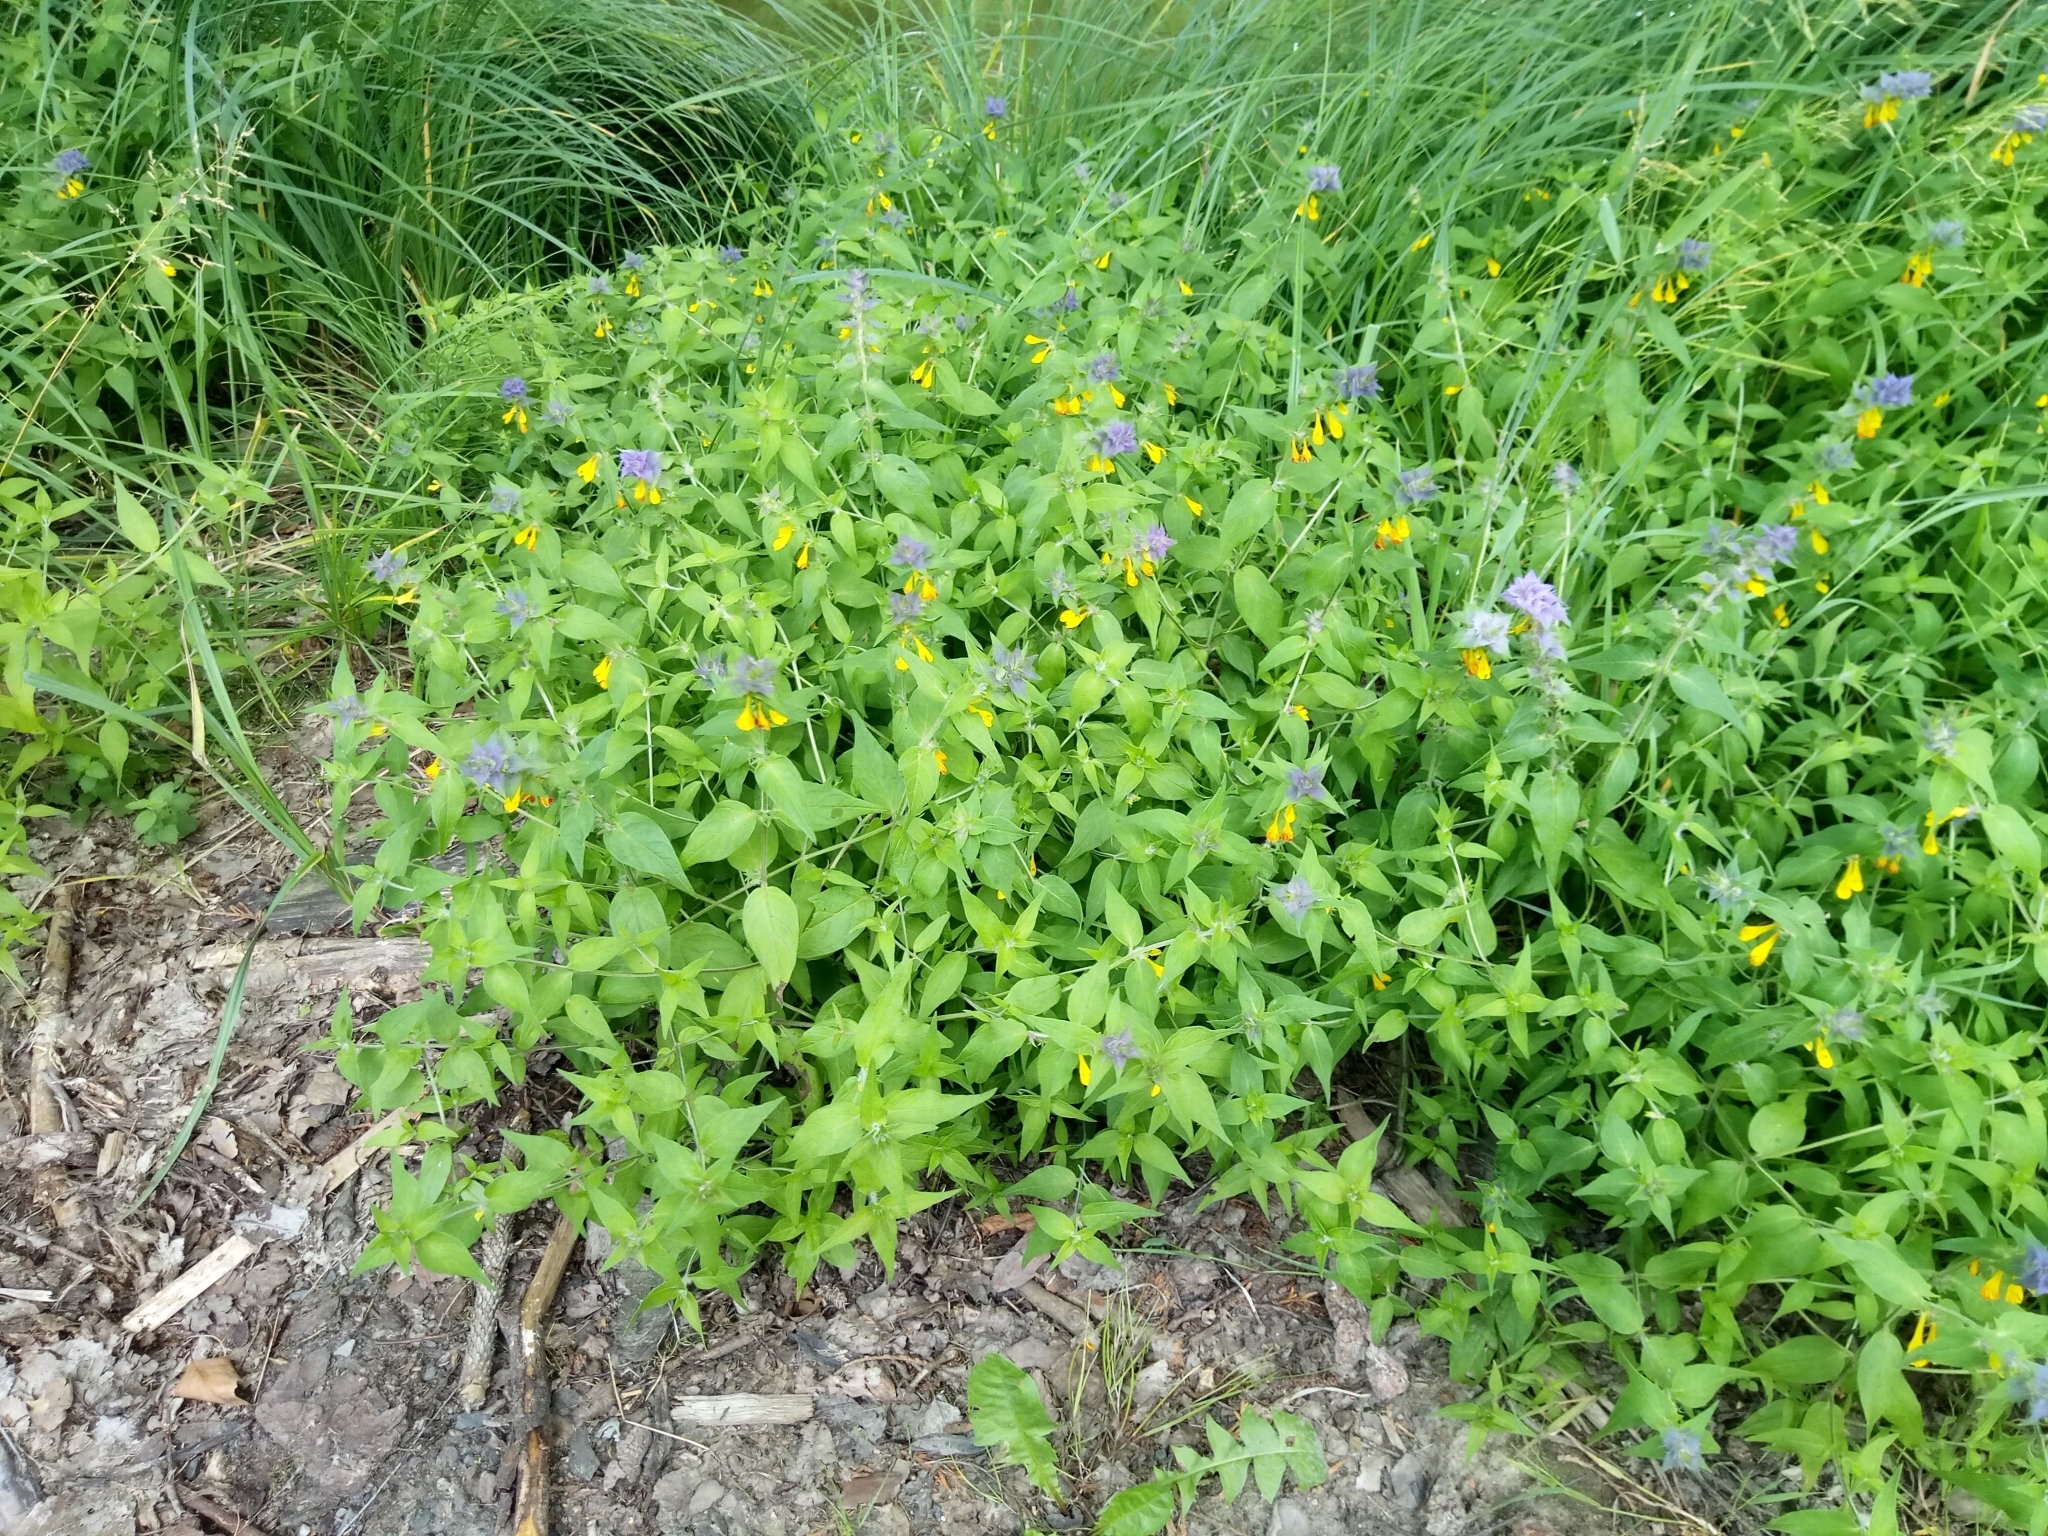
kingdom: Plantae
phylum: Tracheophyta
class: Magnoliopsida
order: Lamiales
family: Orobanchaceae
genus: Melampyrum
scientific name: Melampyrum nemorosum
